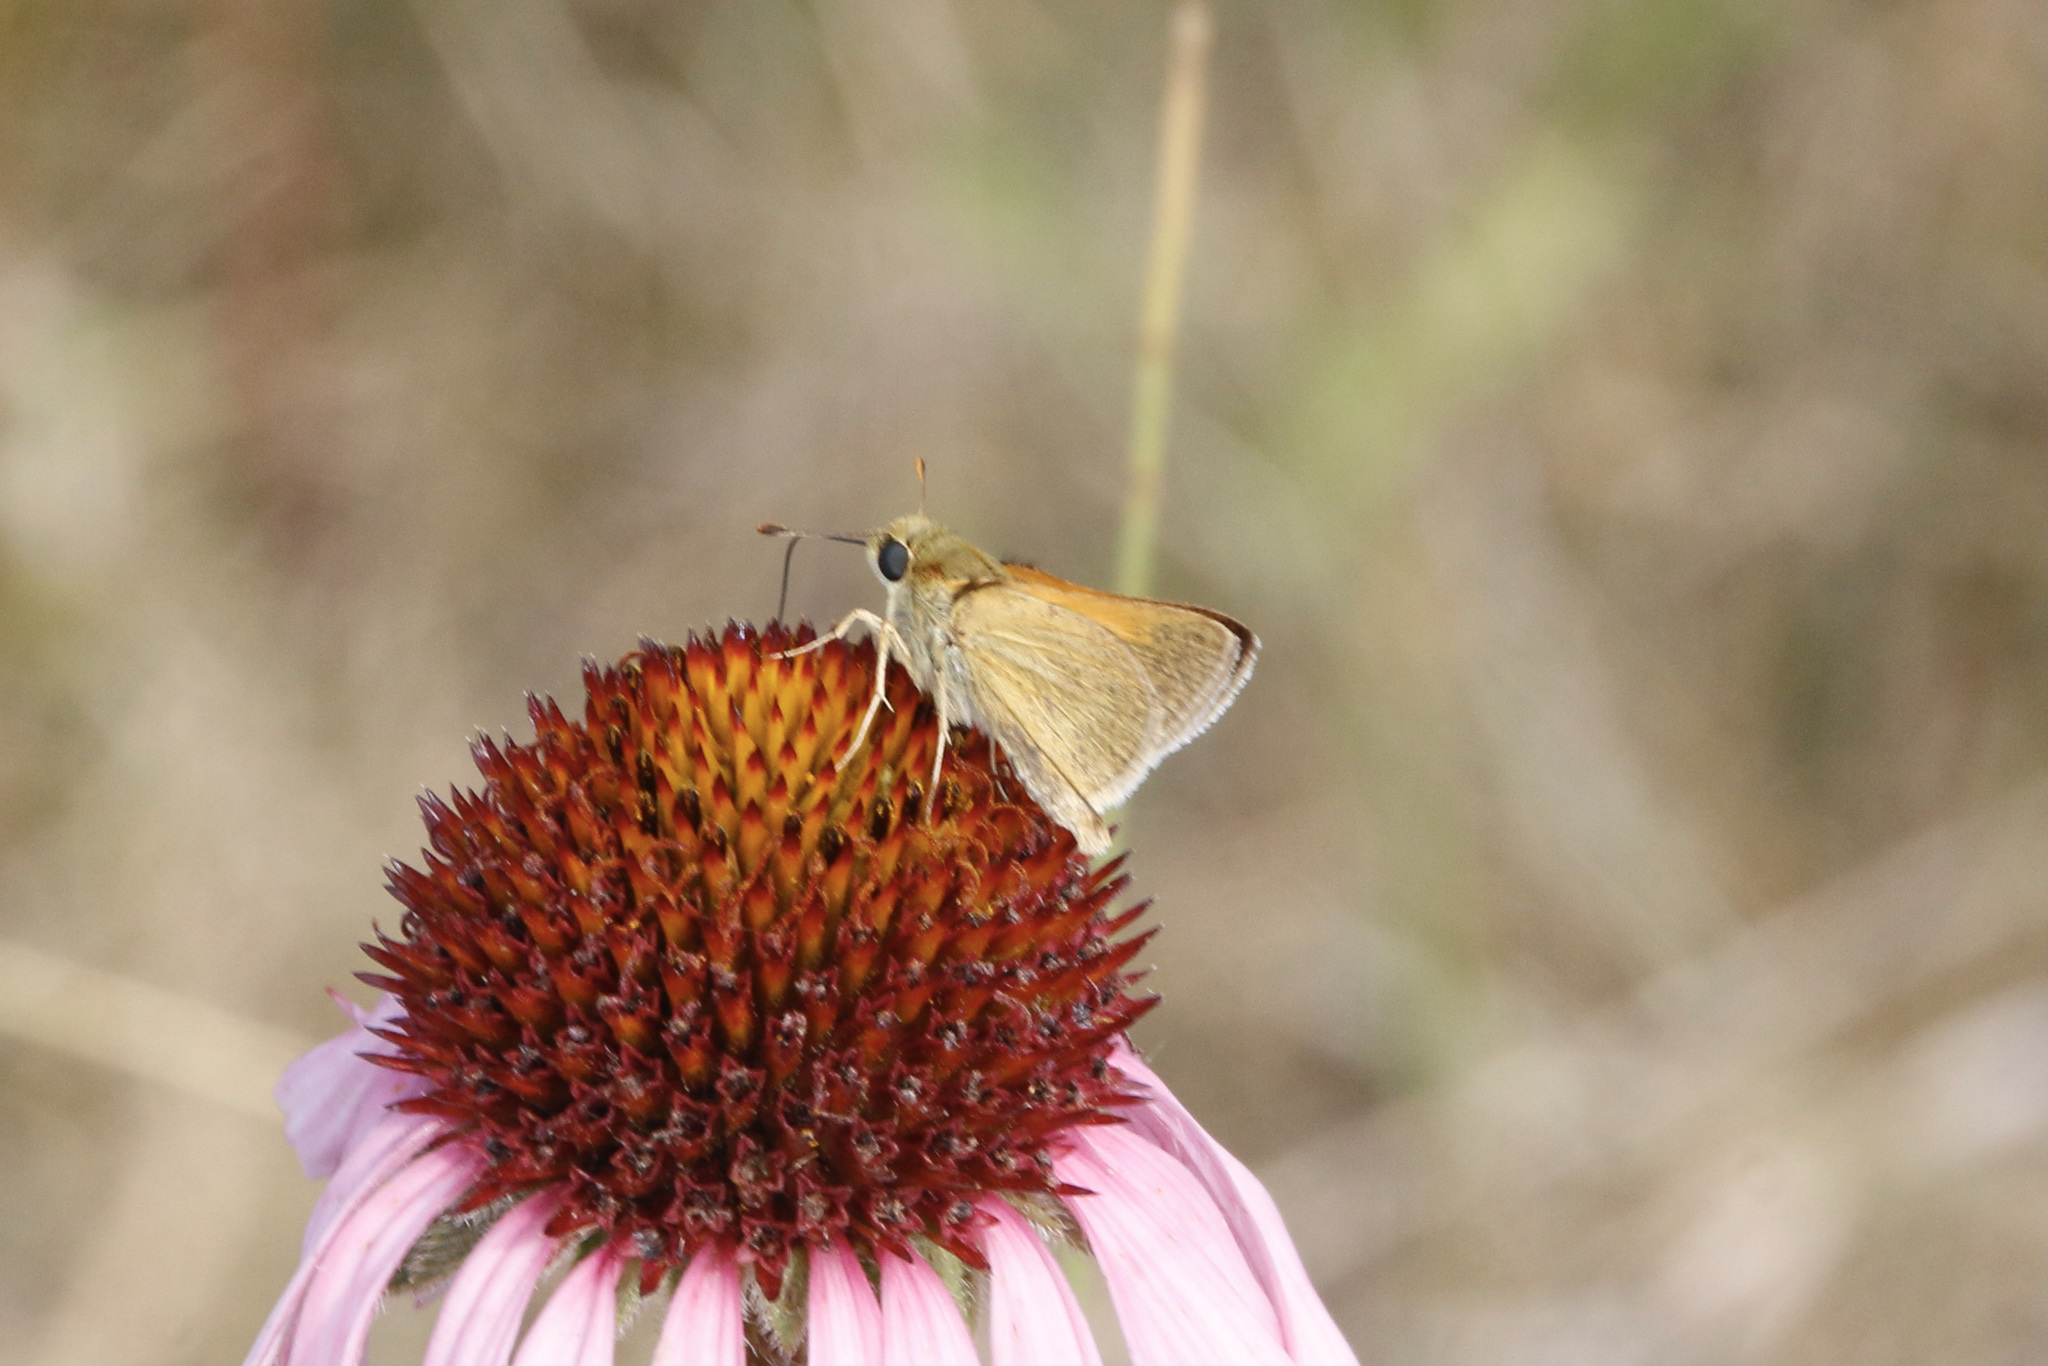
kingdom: Animalia
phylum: Arthropoda
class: Insecta
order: Lepidoptera
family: Hesperiidae
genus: Polites
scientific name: Polites themistocles
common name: Tawny-edged skipper
